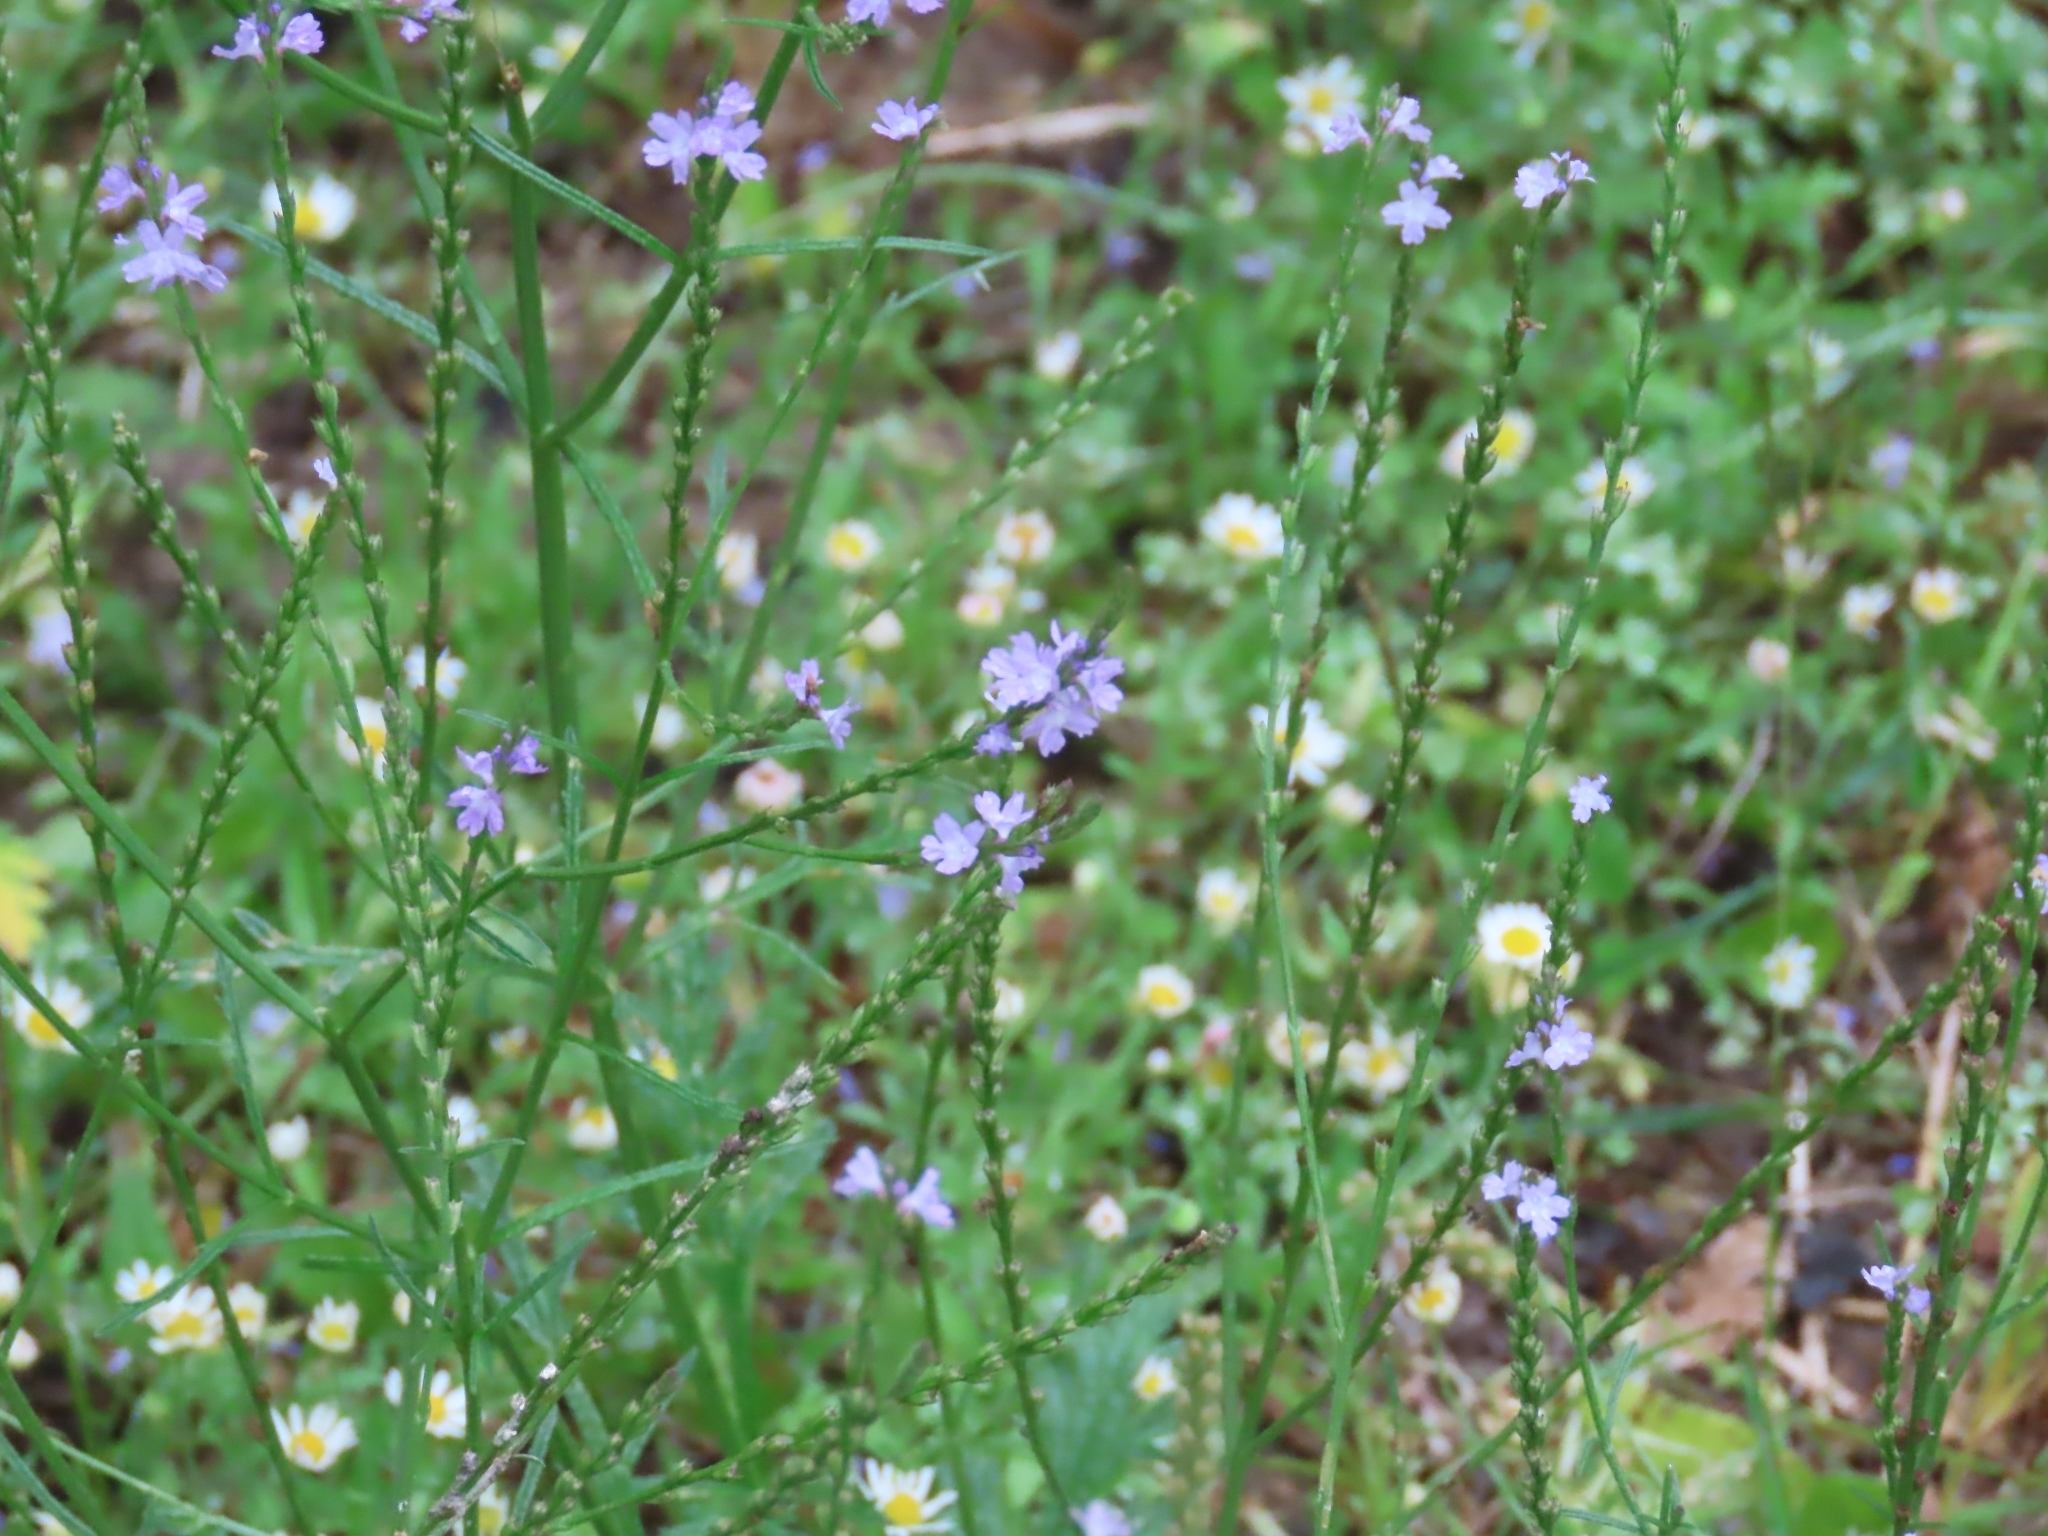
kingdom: Plantae
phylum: Tracheophyta
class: Magnoliopsida
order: Lamiales
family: Verbenaceae
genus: Verbena
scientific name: Verbena halei
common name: Texas vervain
